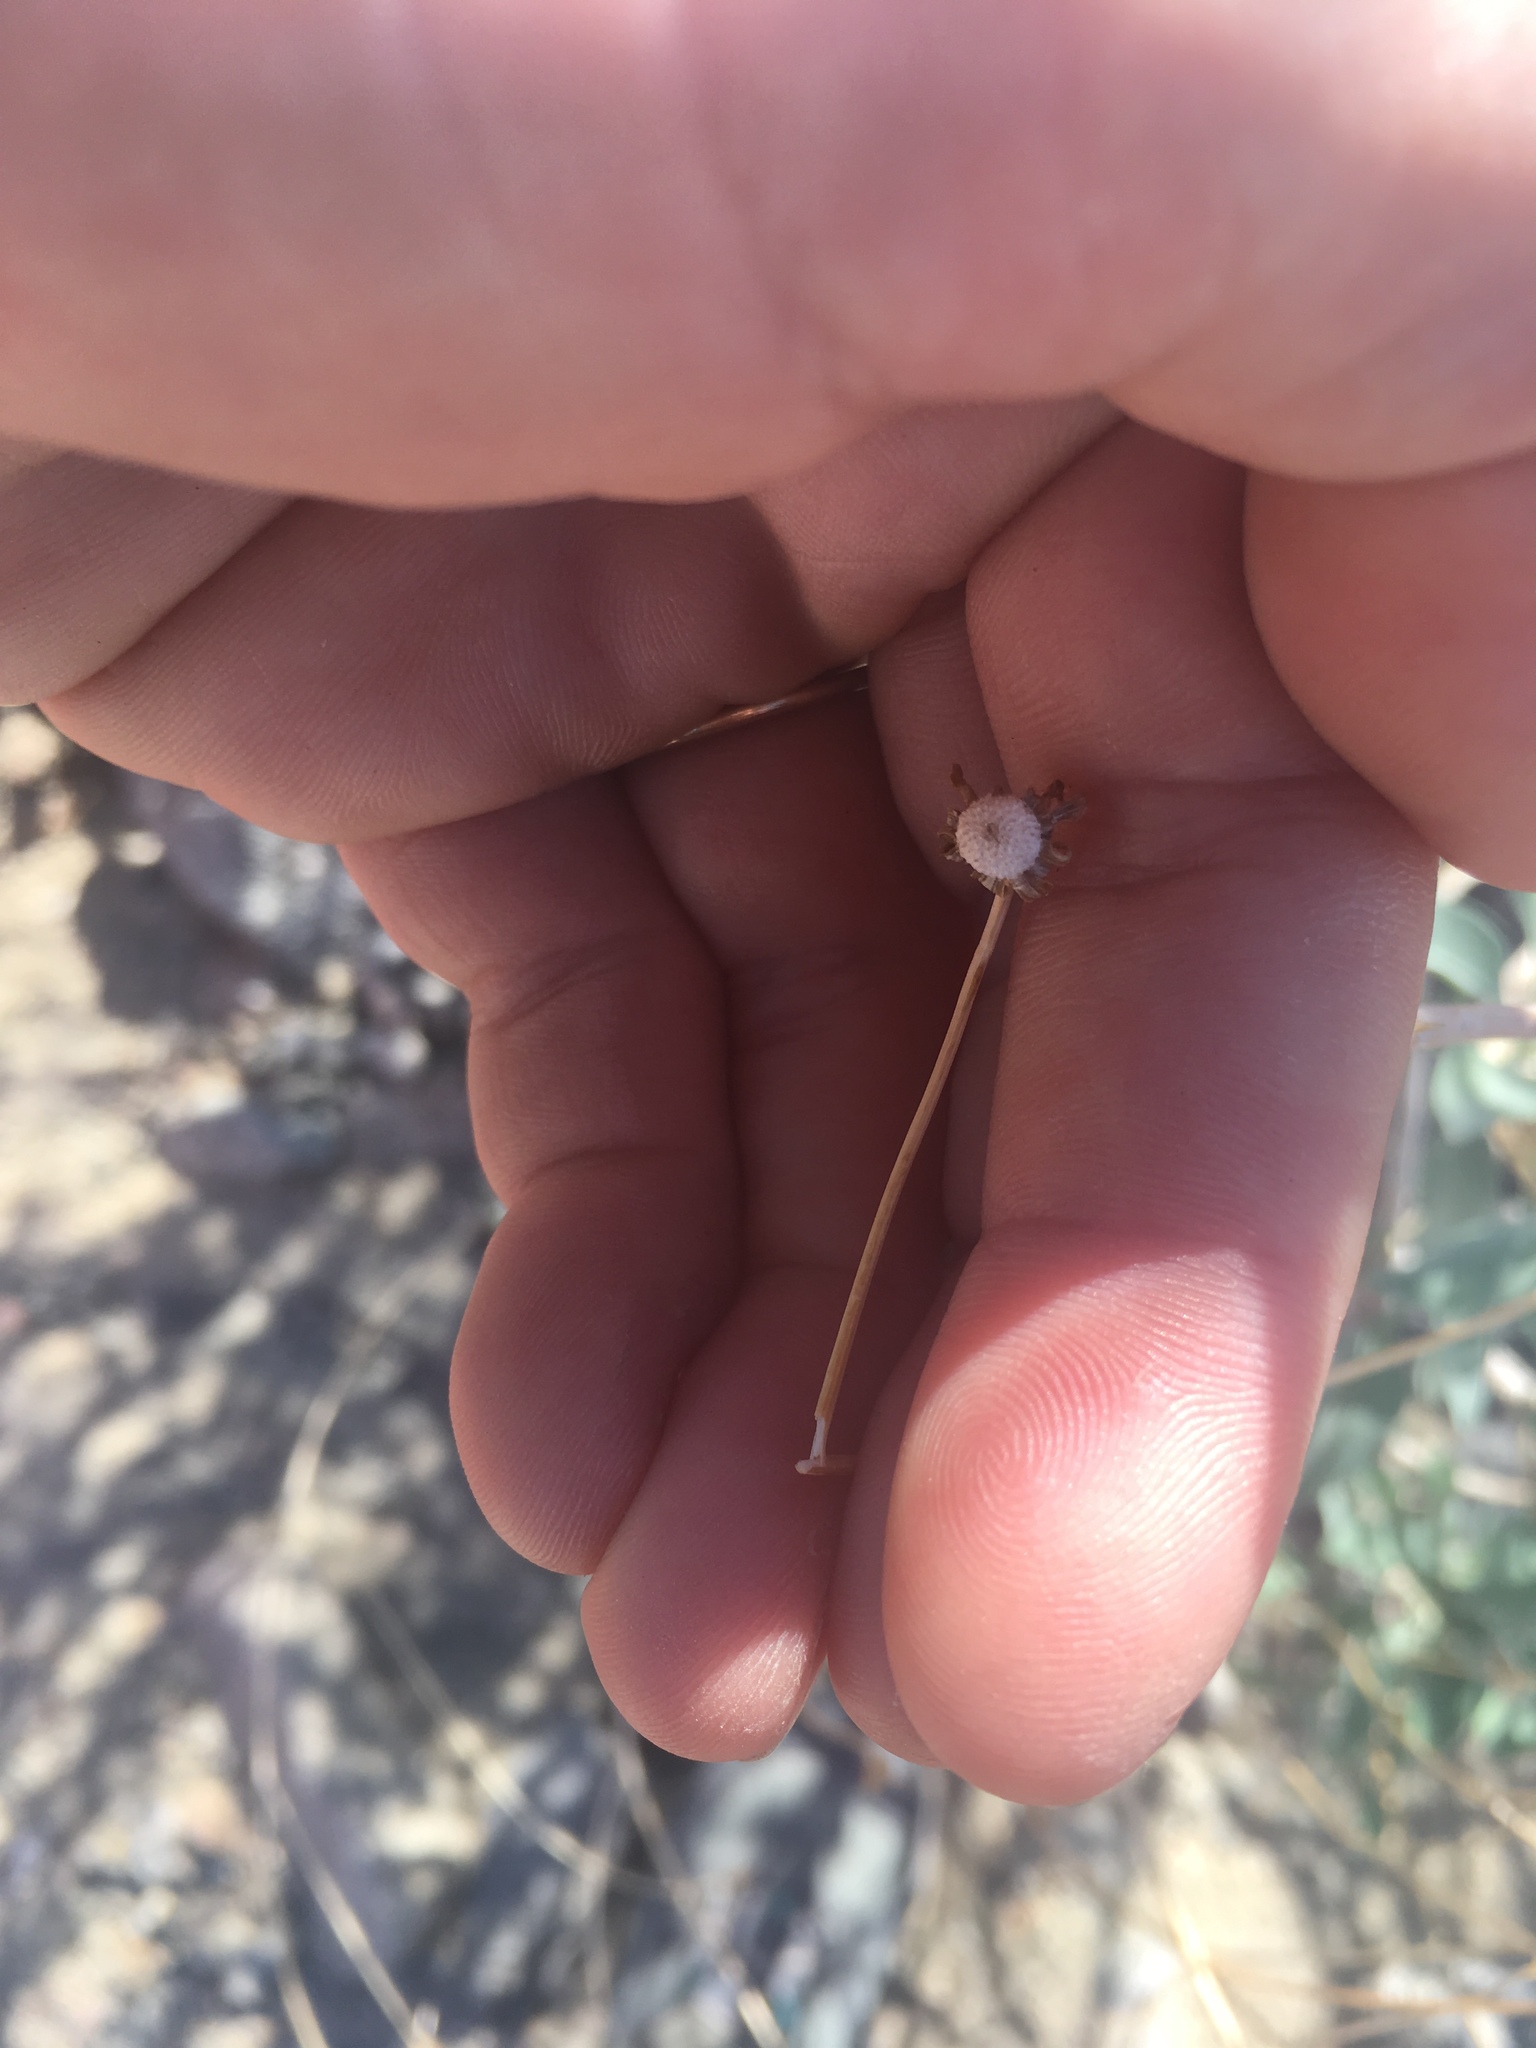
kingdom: Plantae
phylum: Tracheophyta
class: Magnoliopsida
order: Asterales
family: Asteraceae
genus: Encelia
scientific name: Encelia farinosa
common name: Brittlebush
